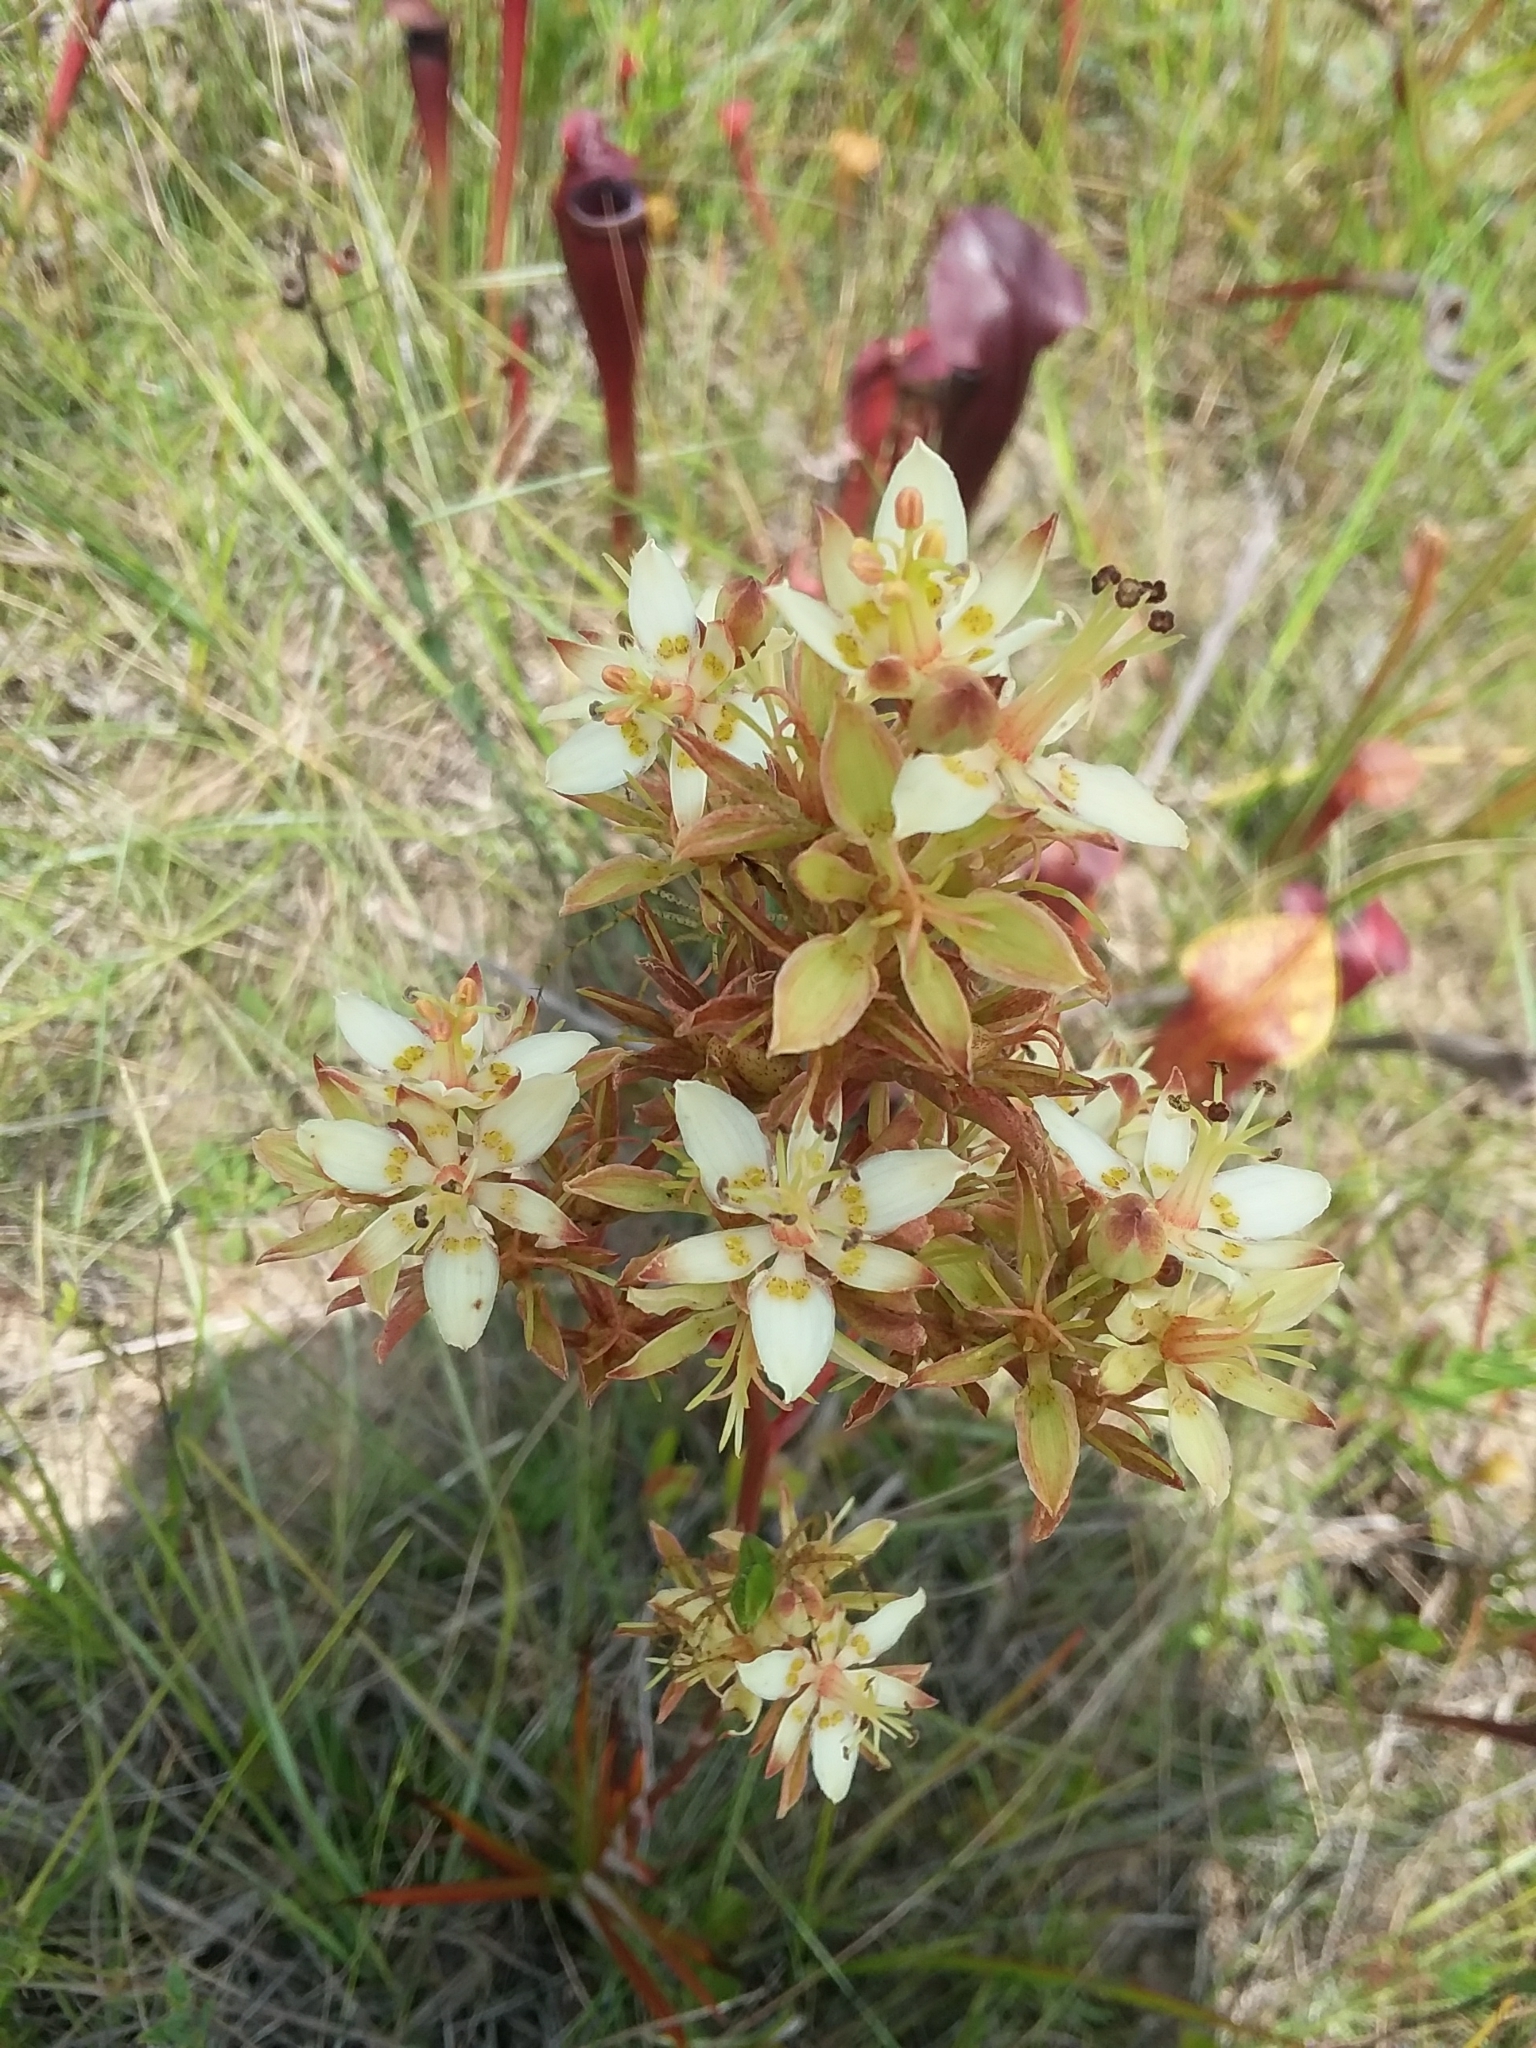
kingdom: Plantae
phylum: Tracheophyta
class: Liliopsida
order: Liliales
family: Melanthiaceae
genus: Zigadenus
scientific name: Zigadenus glaberrimus
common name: Sandbog death camas
